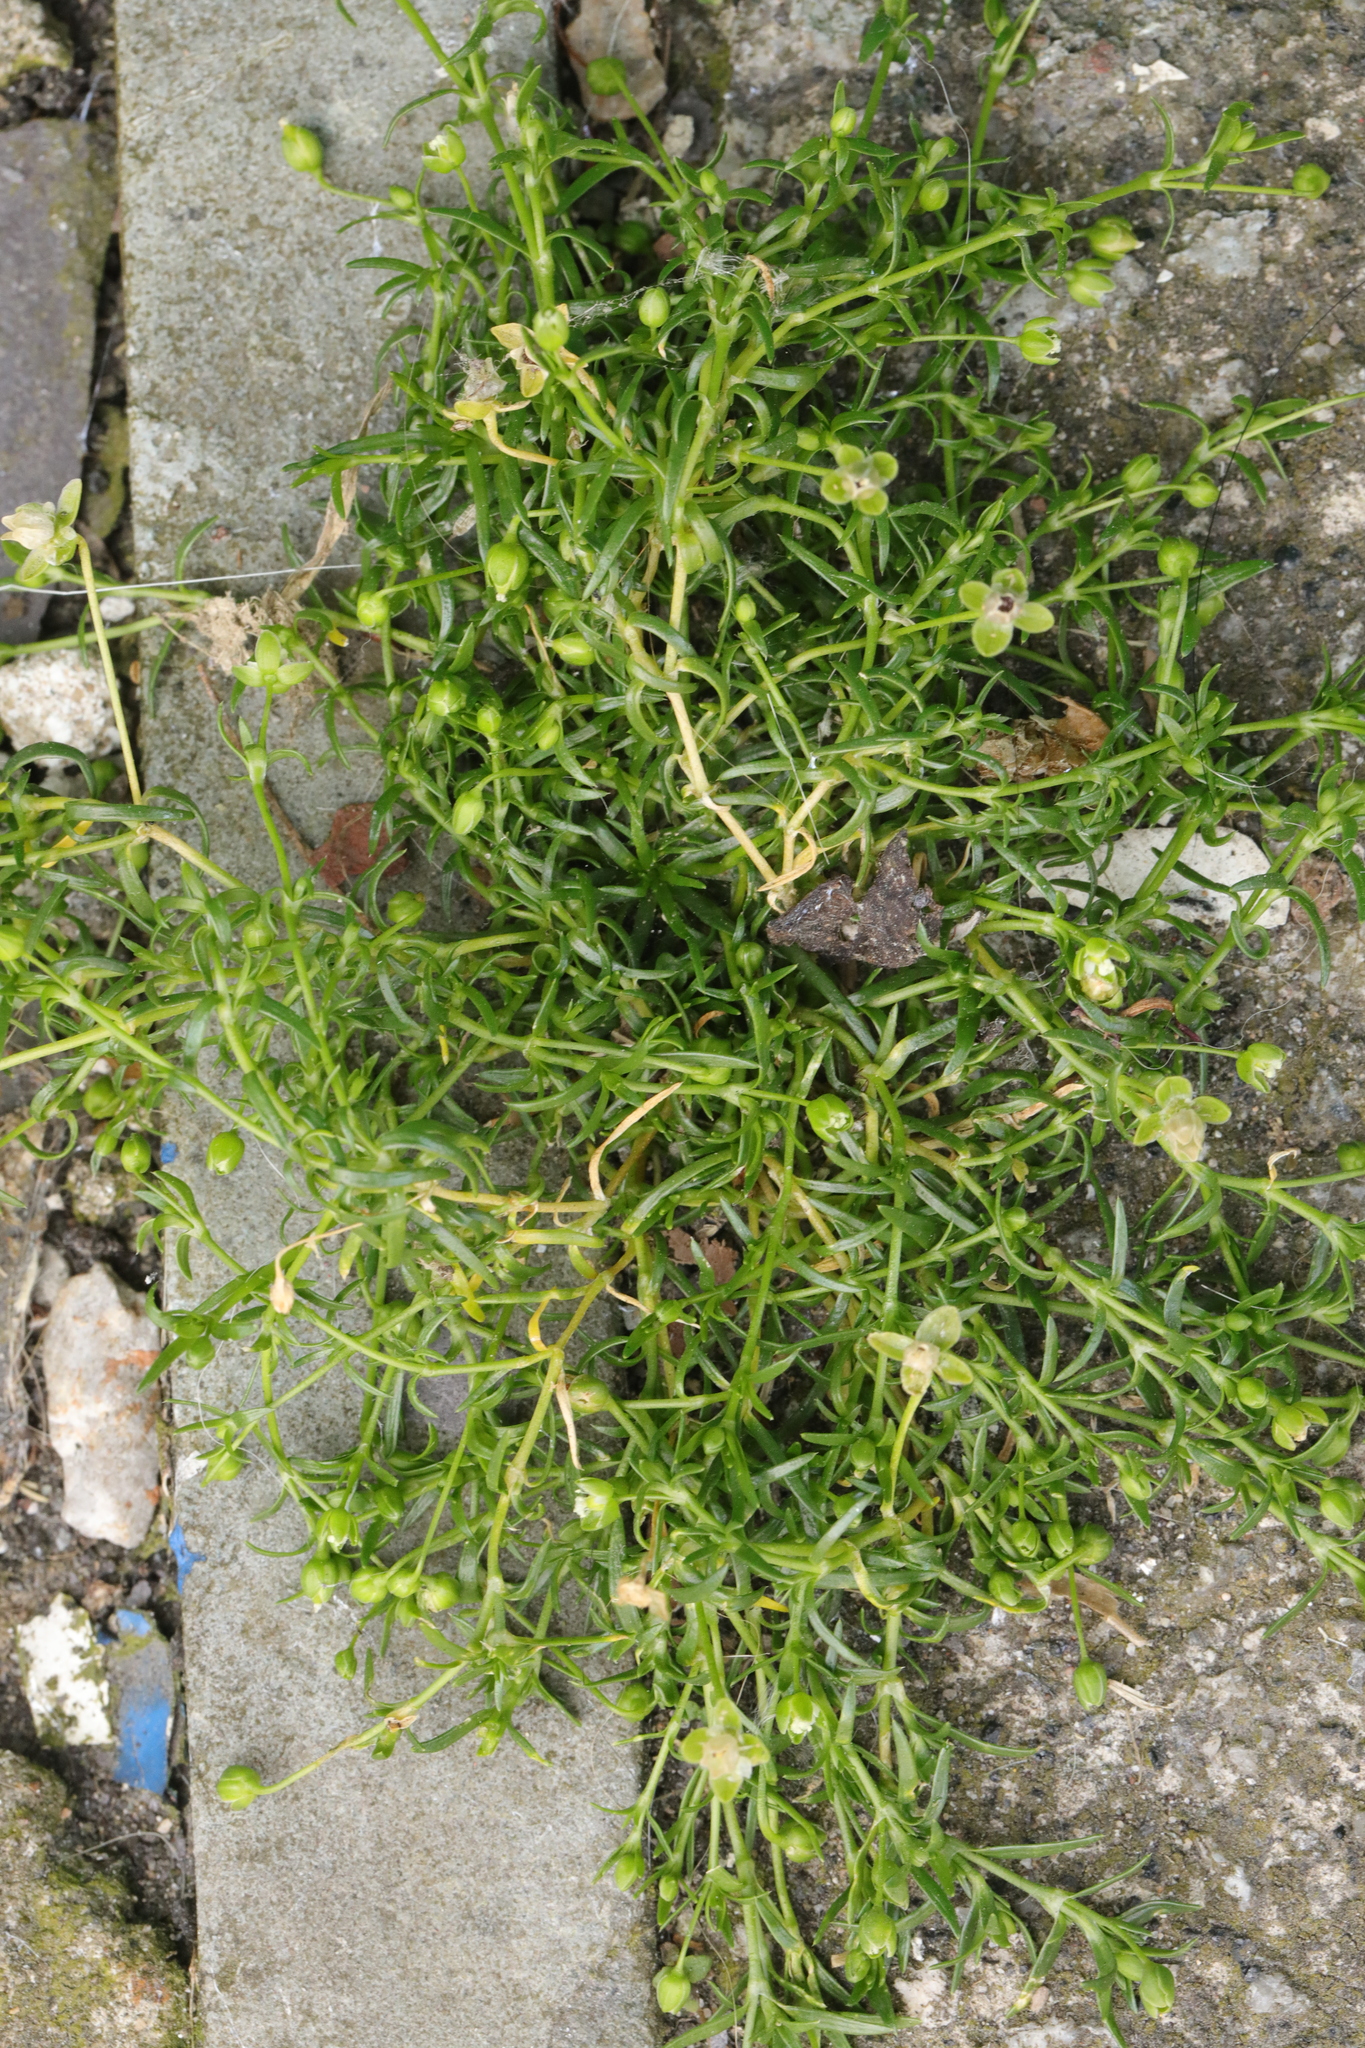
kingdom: Plantae
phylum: Tracheophyta
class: Magnoliopsida
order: Caryophyllales
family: Caryophyllaceae
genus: Sagina
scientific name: Sagina procumbens
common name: Procumbent pearlwort
